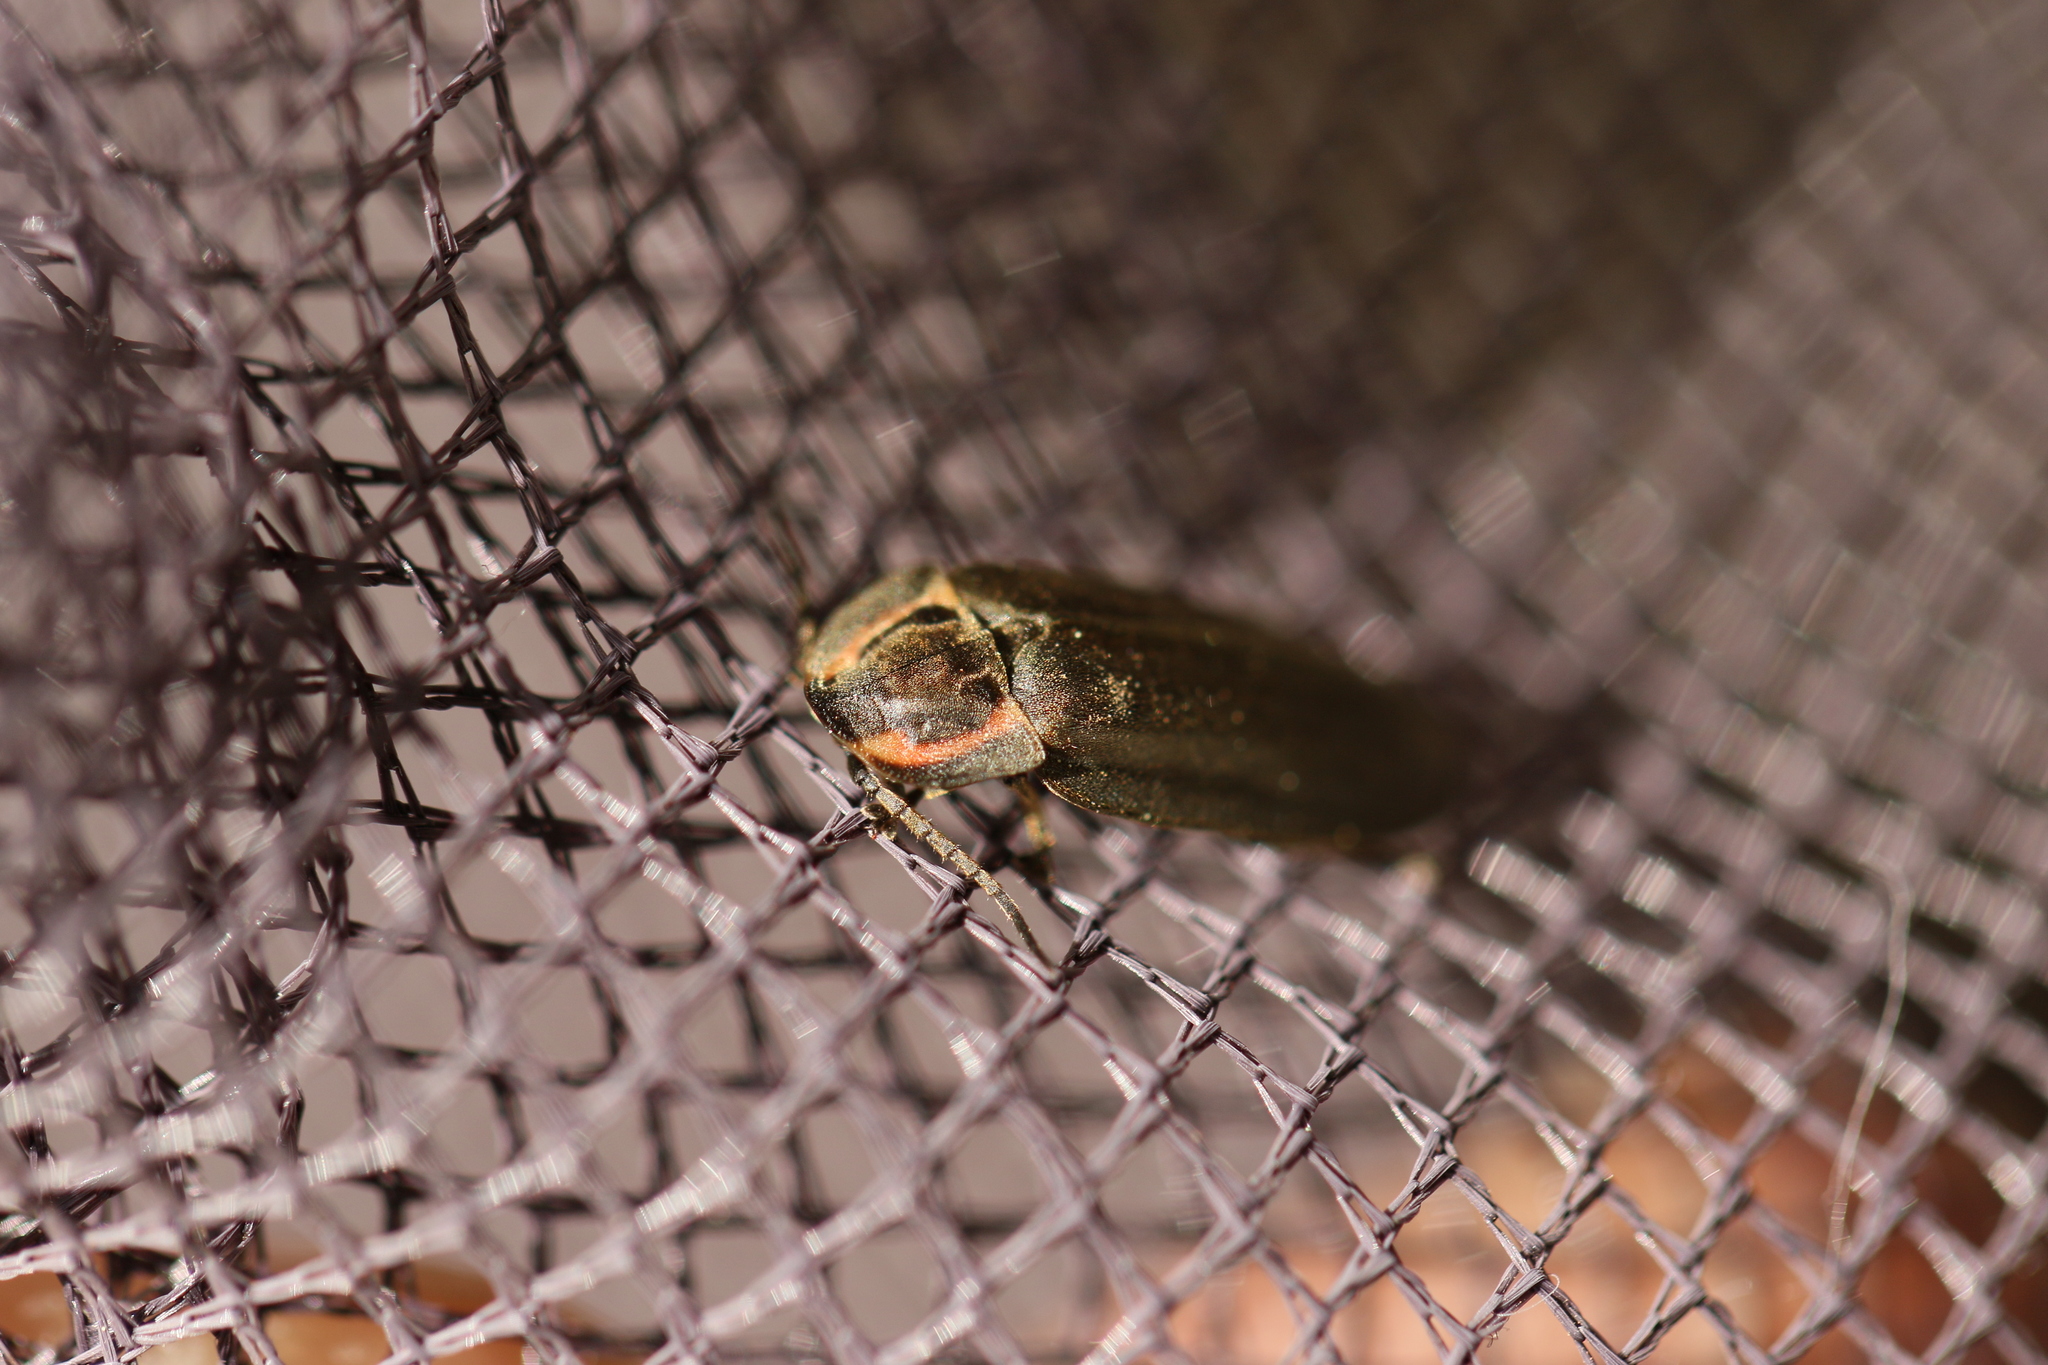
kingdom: Animalia
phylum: Arthropoda
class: Insecta
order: Coleoptera
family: Lampyridae
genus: Photinus
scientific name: Photinus corrusca
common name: Winter firefly
